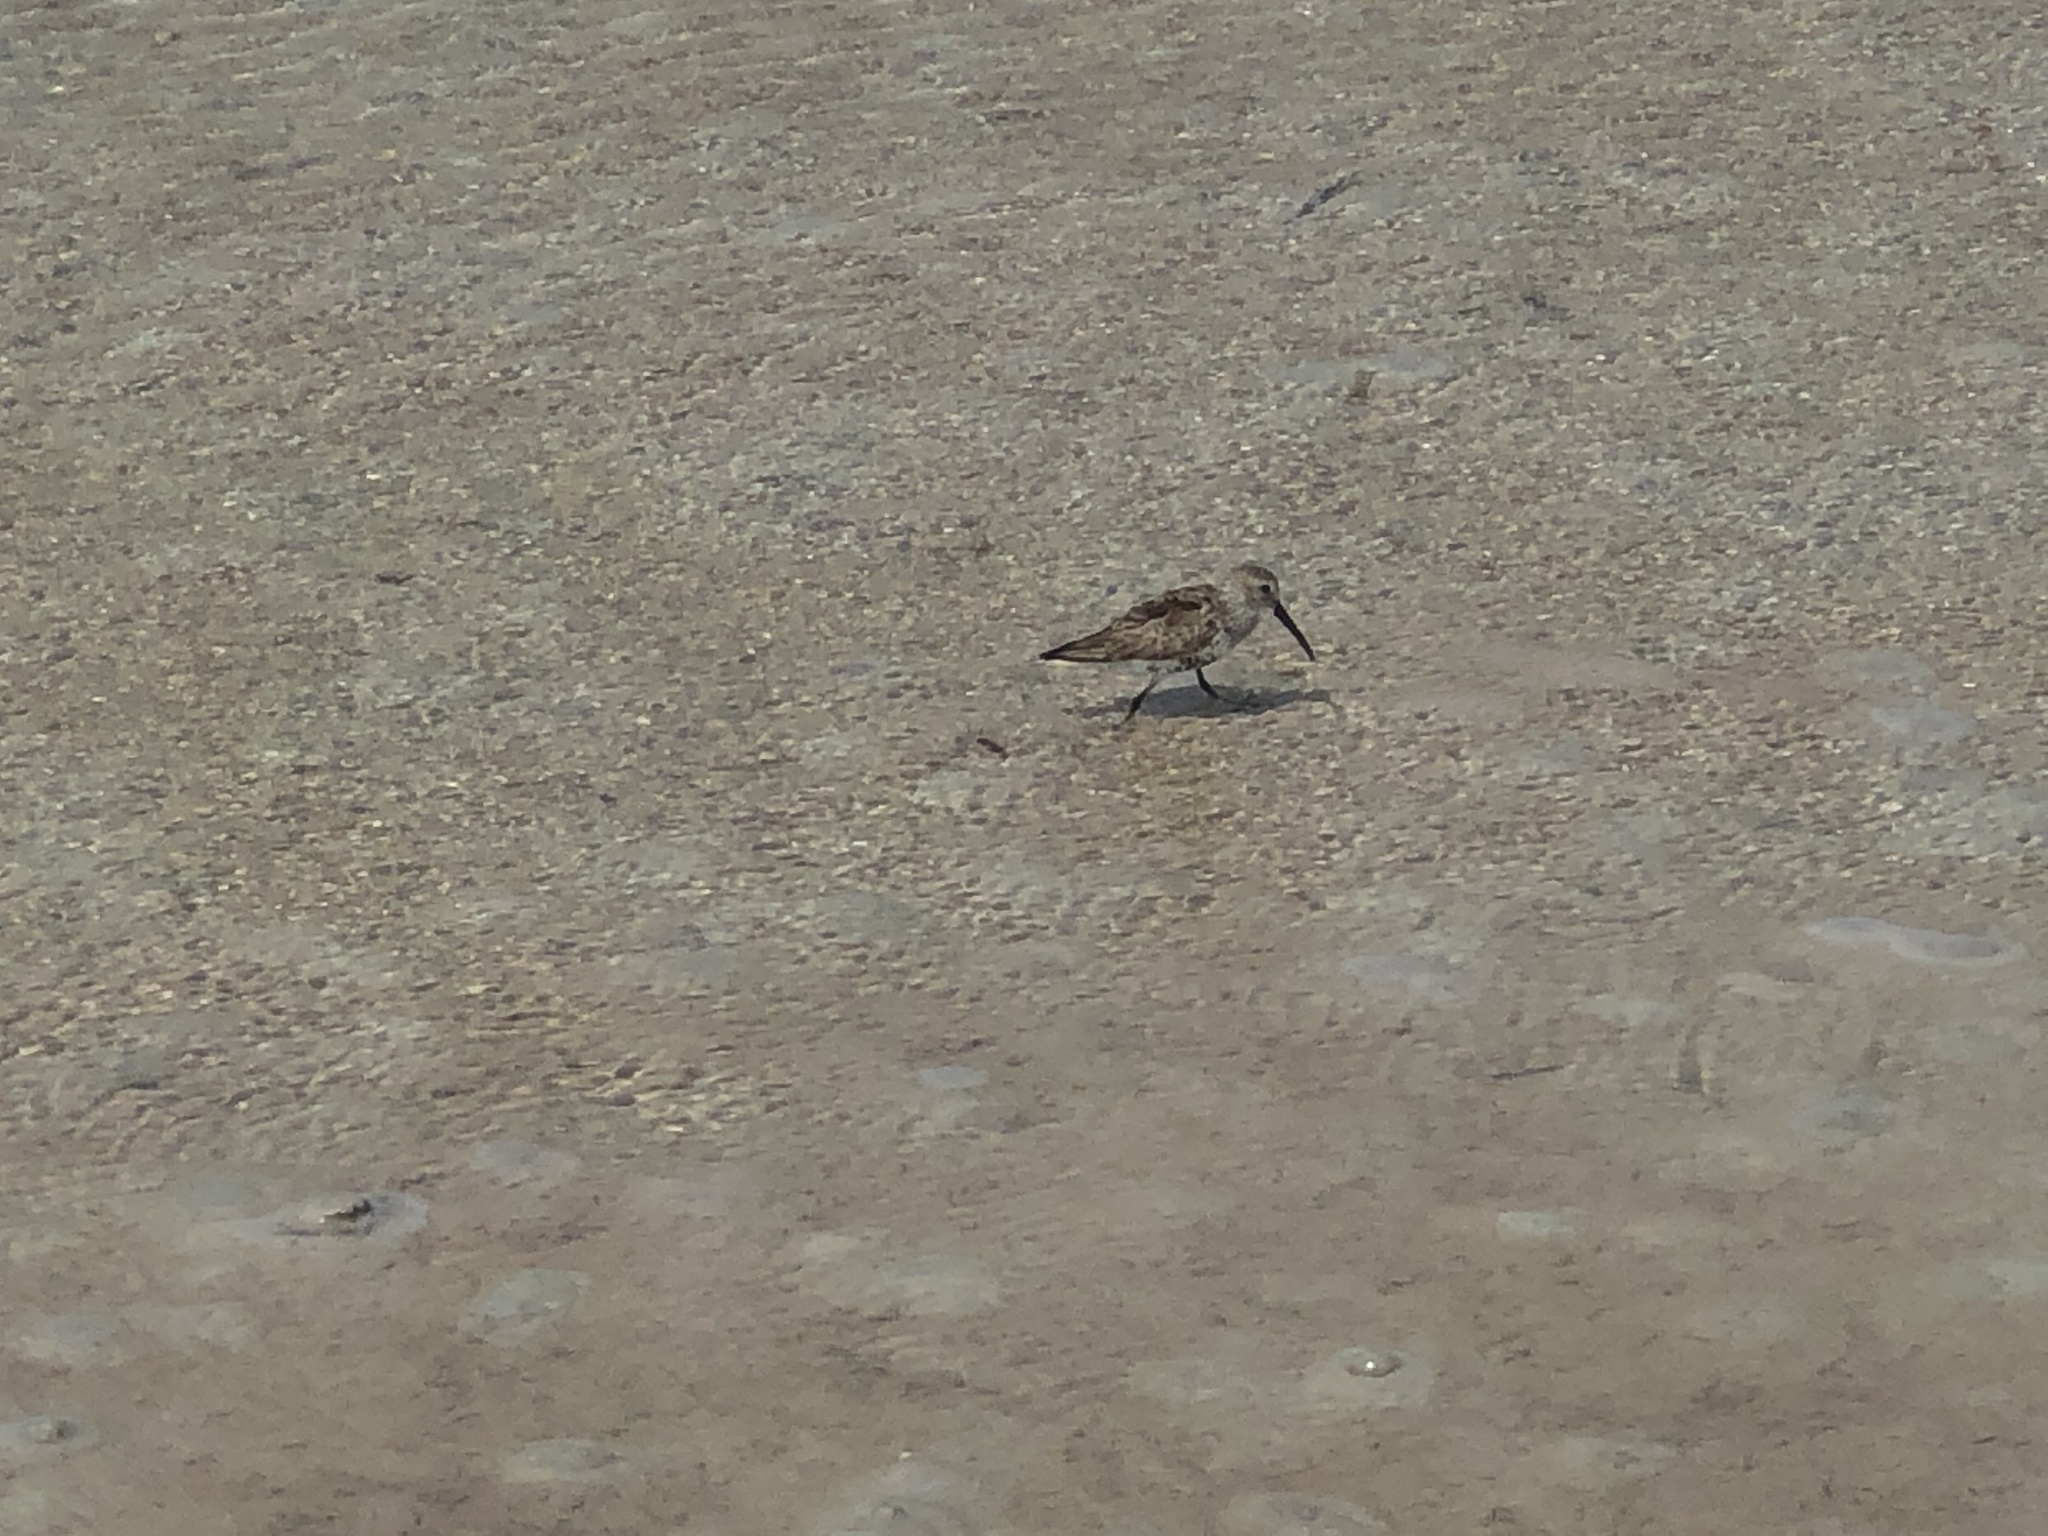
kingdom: Animalia
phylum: Chordata
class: Aves
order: Charadriiformes
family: Scolopacidae
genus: Calidris
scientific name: Calidris alpina
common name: Dunlin
